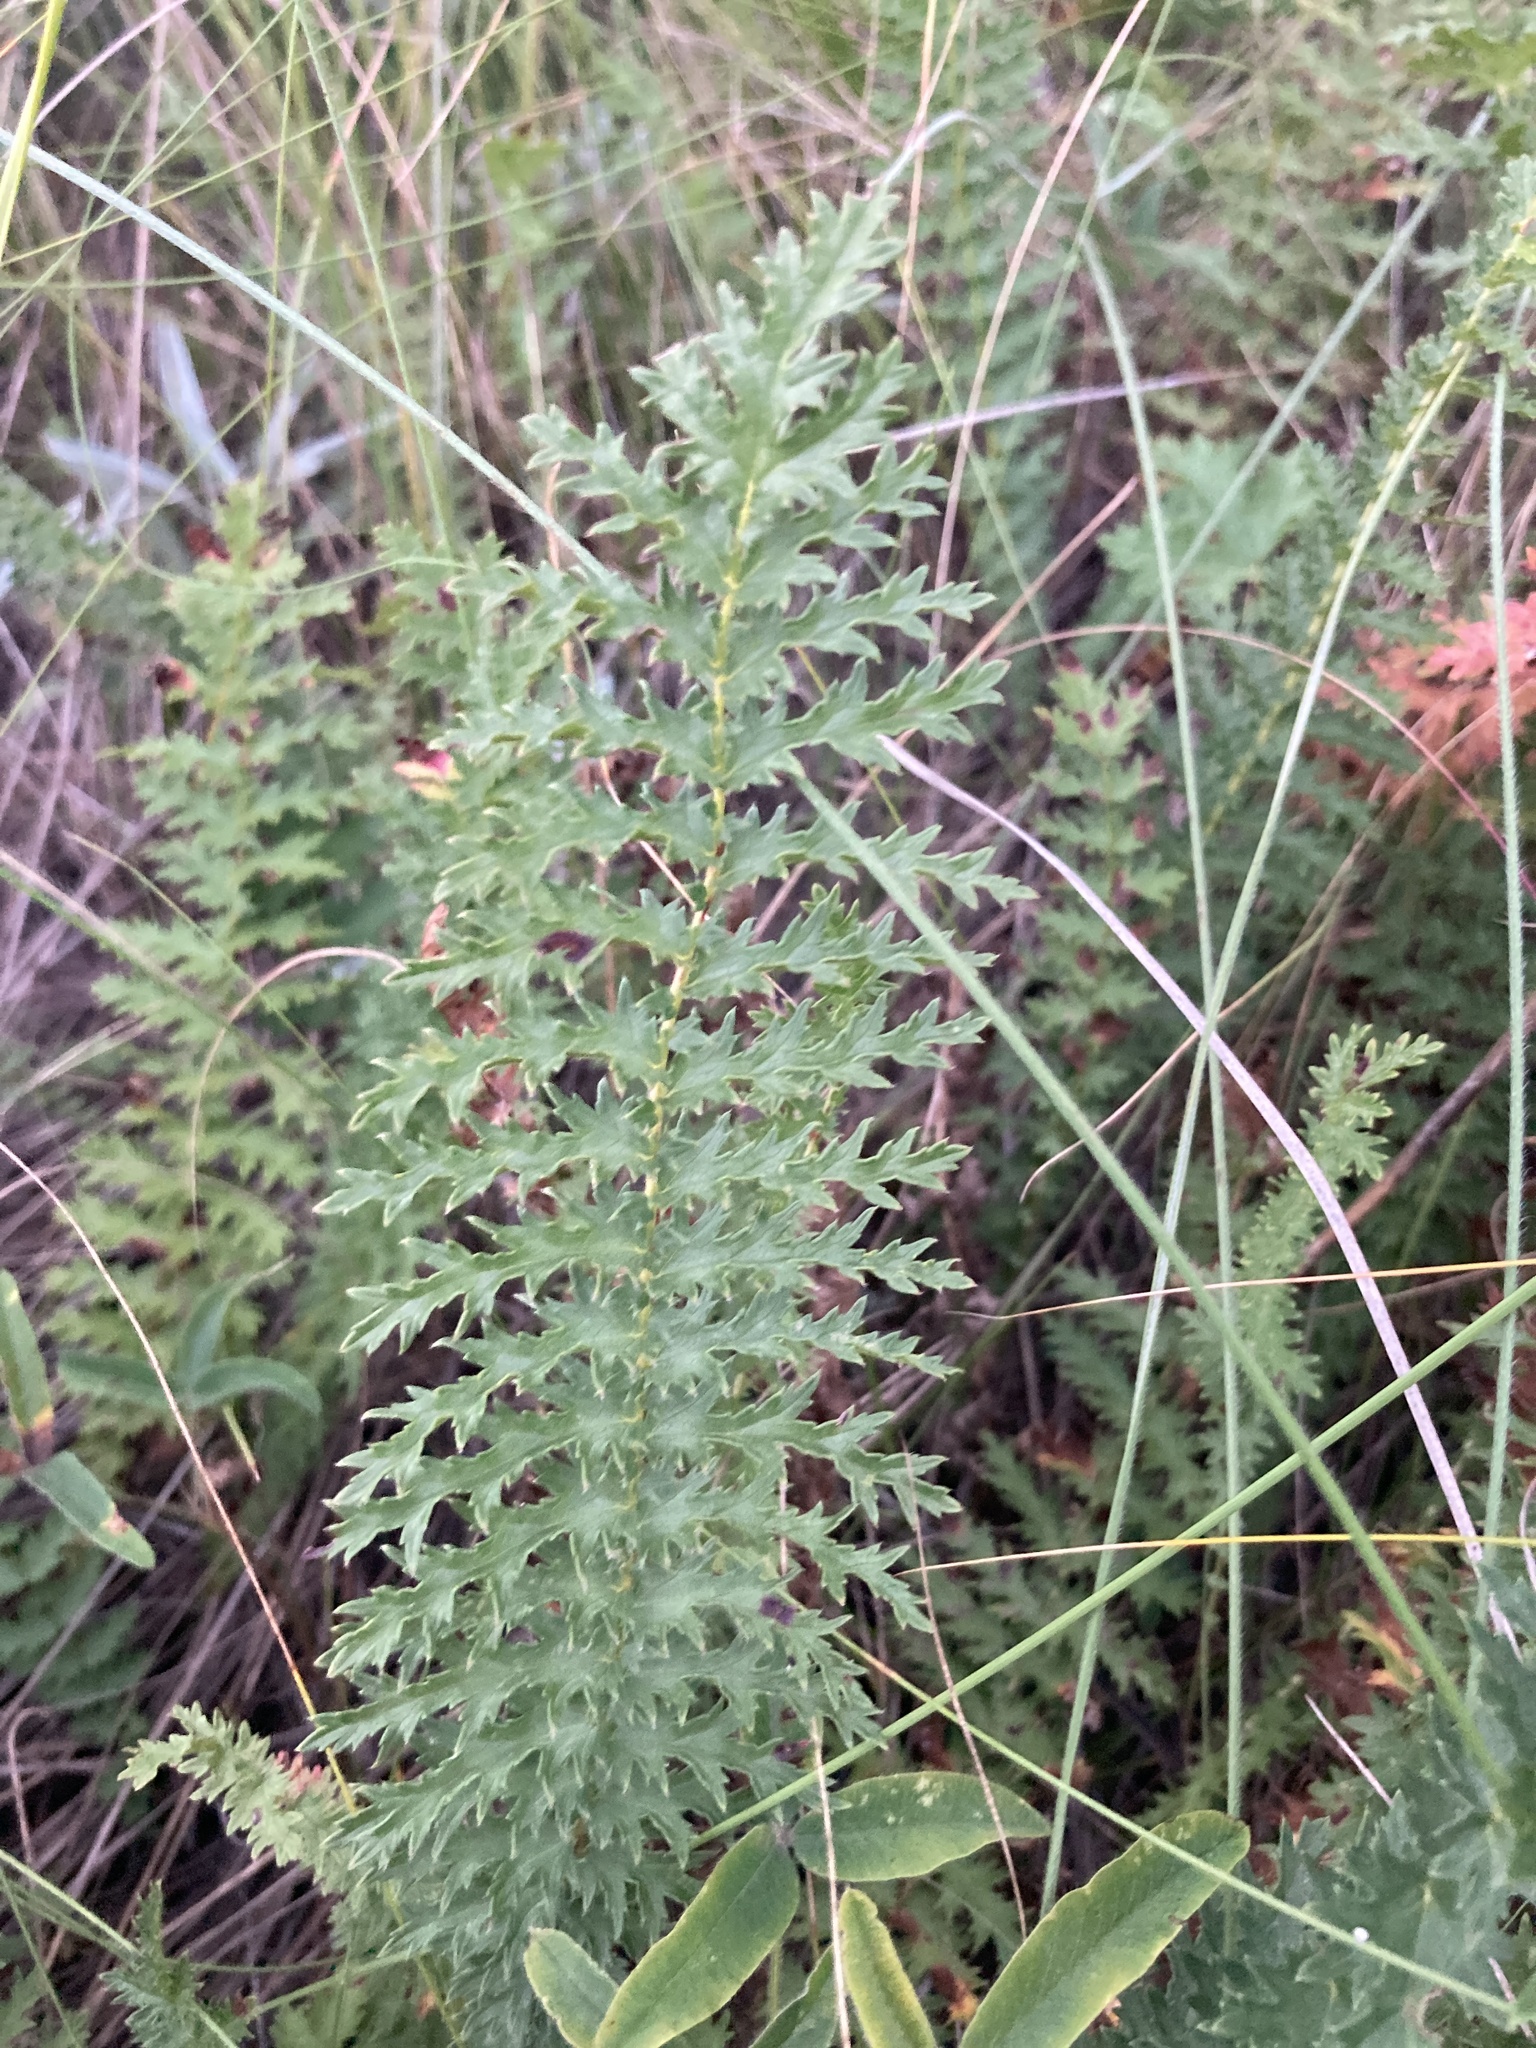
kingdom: Plantae
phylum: Tracheophyta
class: Magnoliopsida
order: Rosales
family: Rosaceae
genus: Filipendula
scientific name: Filipendula vulgaris
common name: Dropwort
